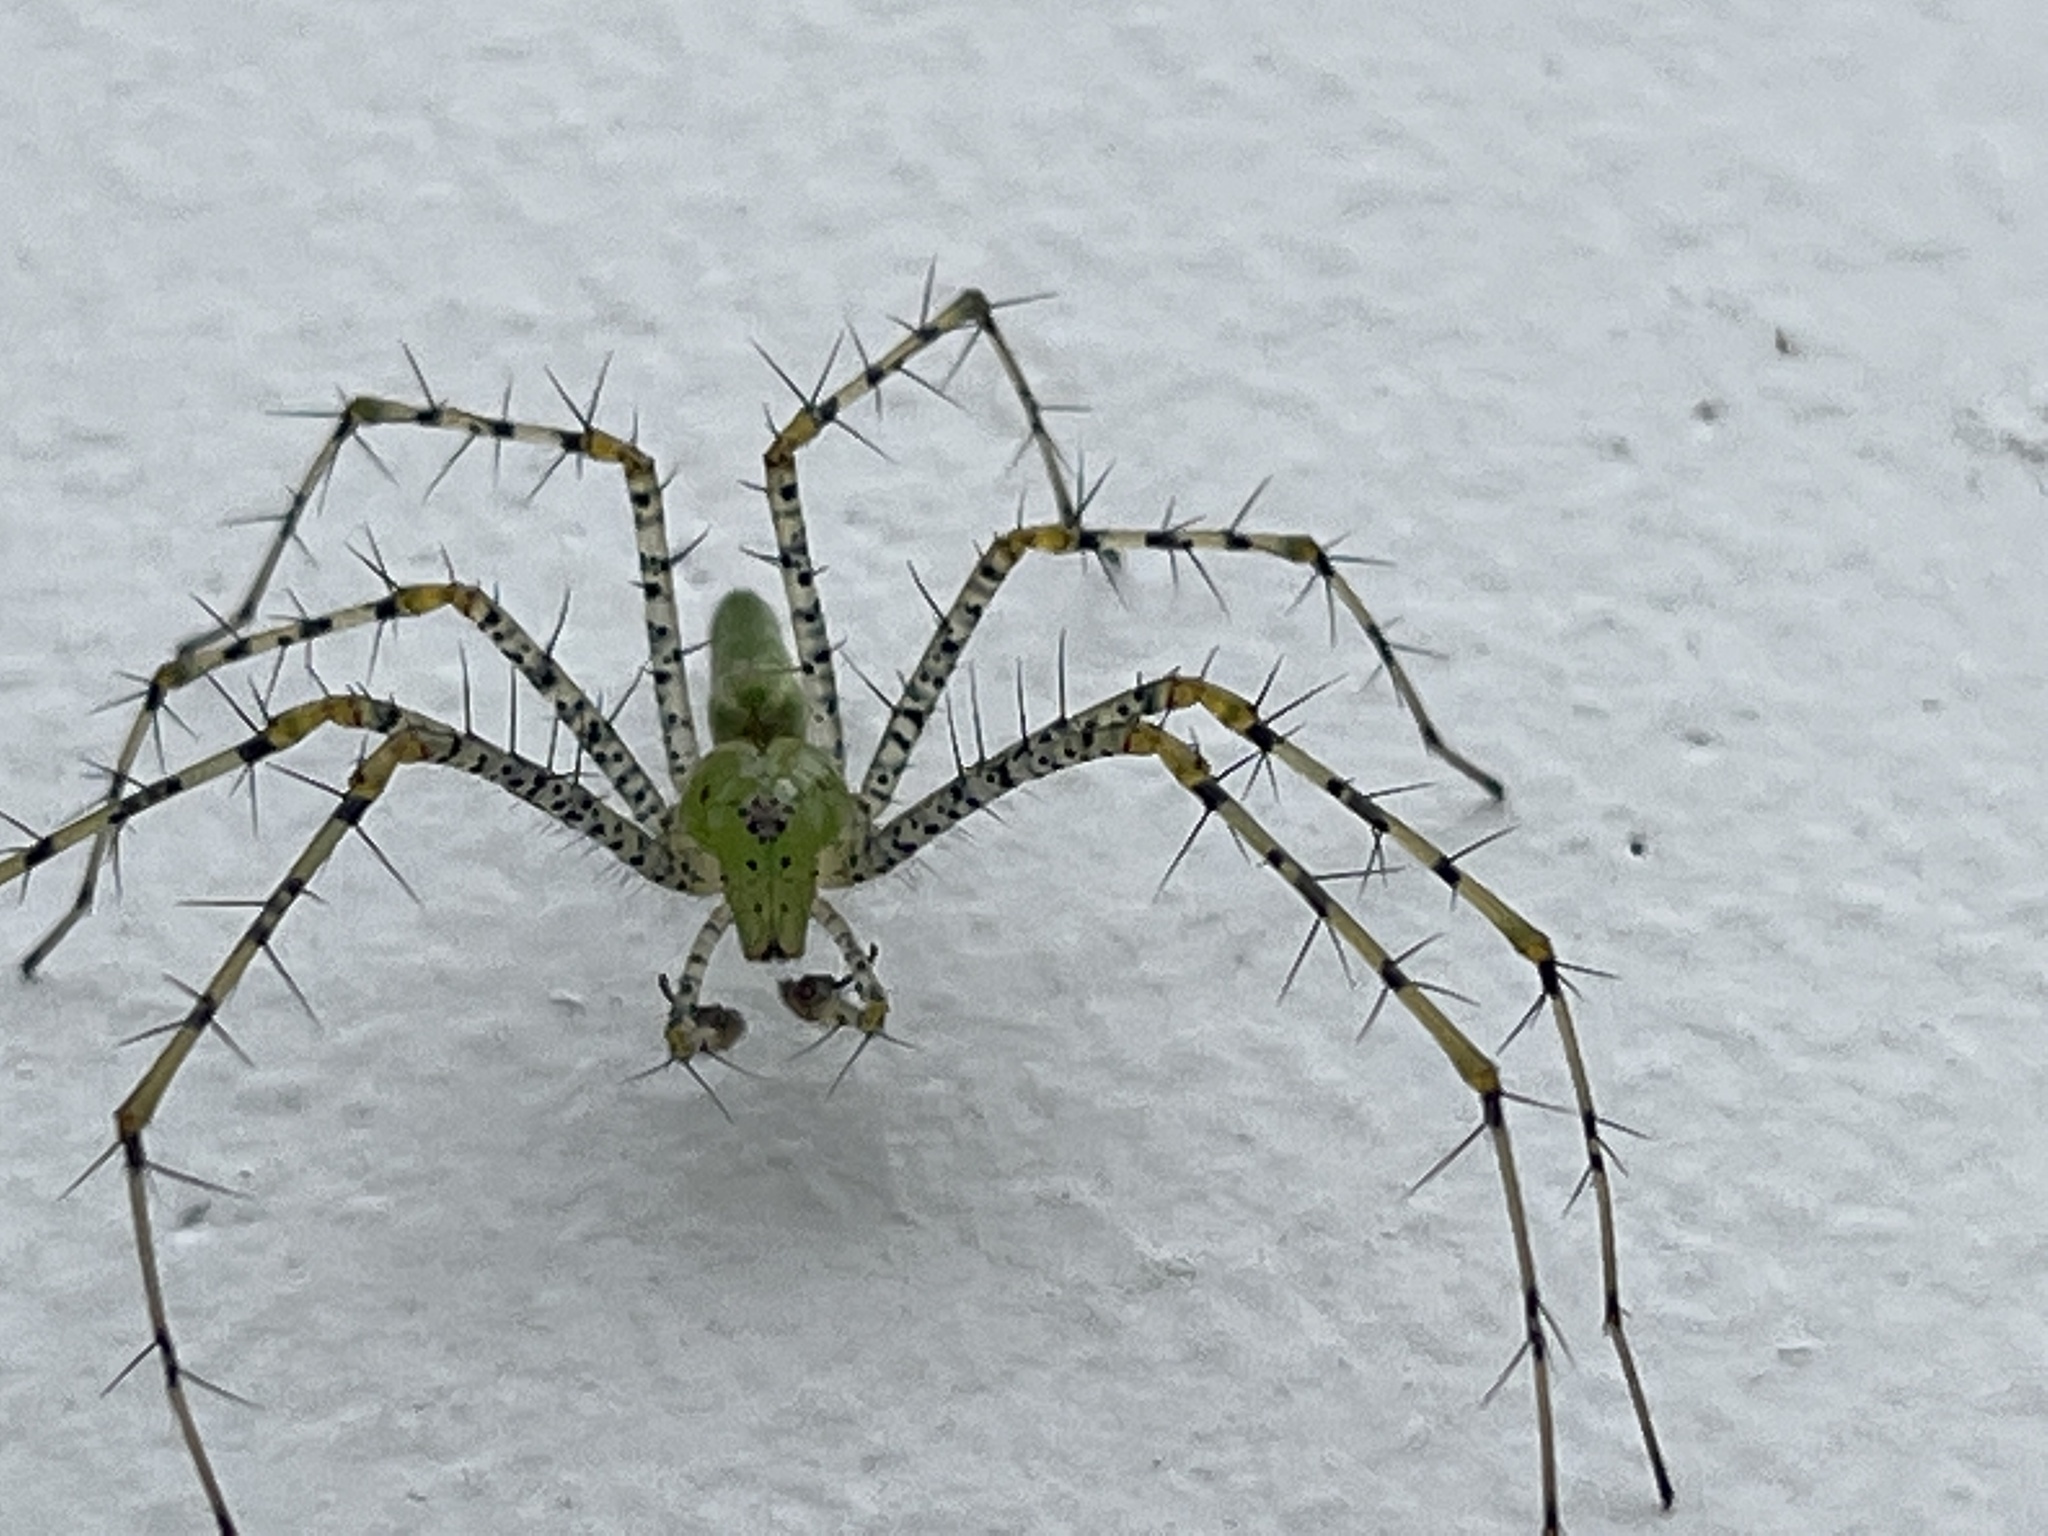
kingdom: Animalia
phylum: Arthropoda
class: Arachnida
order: Araneae
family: Oxyopidae
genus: Peucetia
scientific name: Peucetia viridans
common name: Lynx spiders
